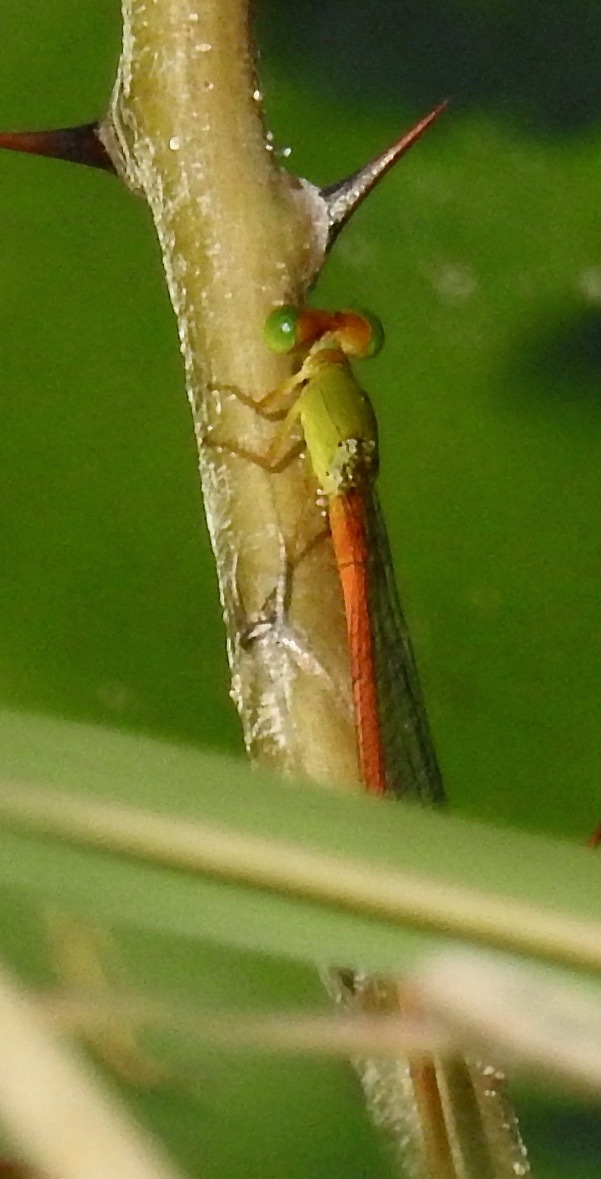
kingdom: Animalia
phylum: Arthropoda
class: Insecta
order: Odonata
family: Coenagrionidae
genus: Ceriagrion
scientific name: Ceriagrion auranticum
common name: Orange-tailed sprite
